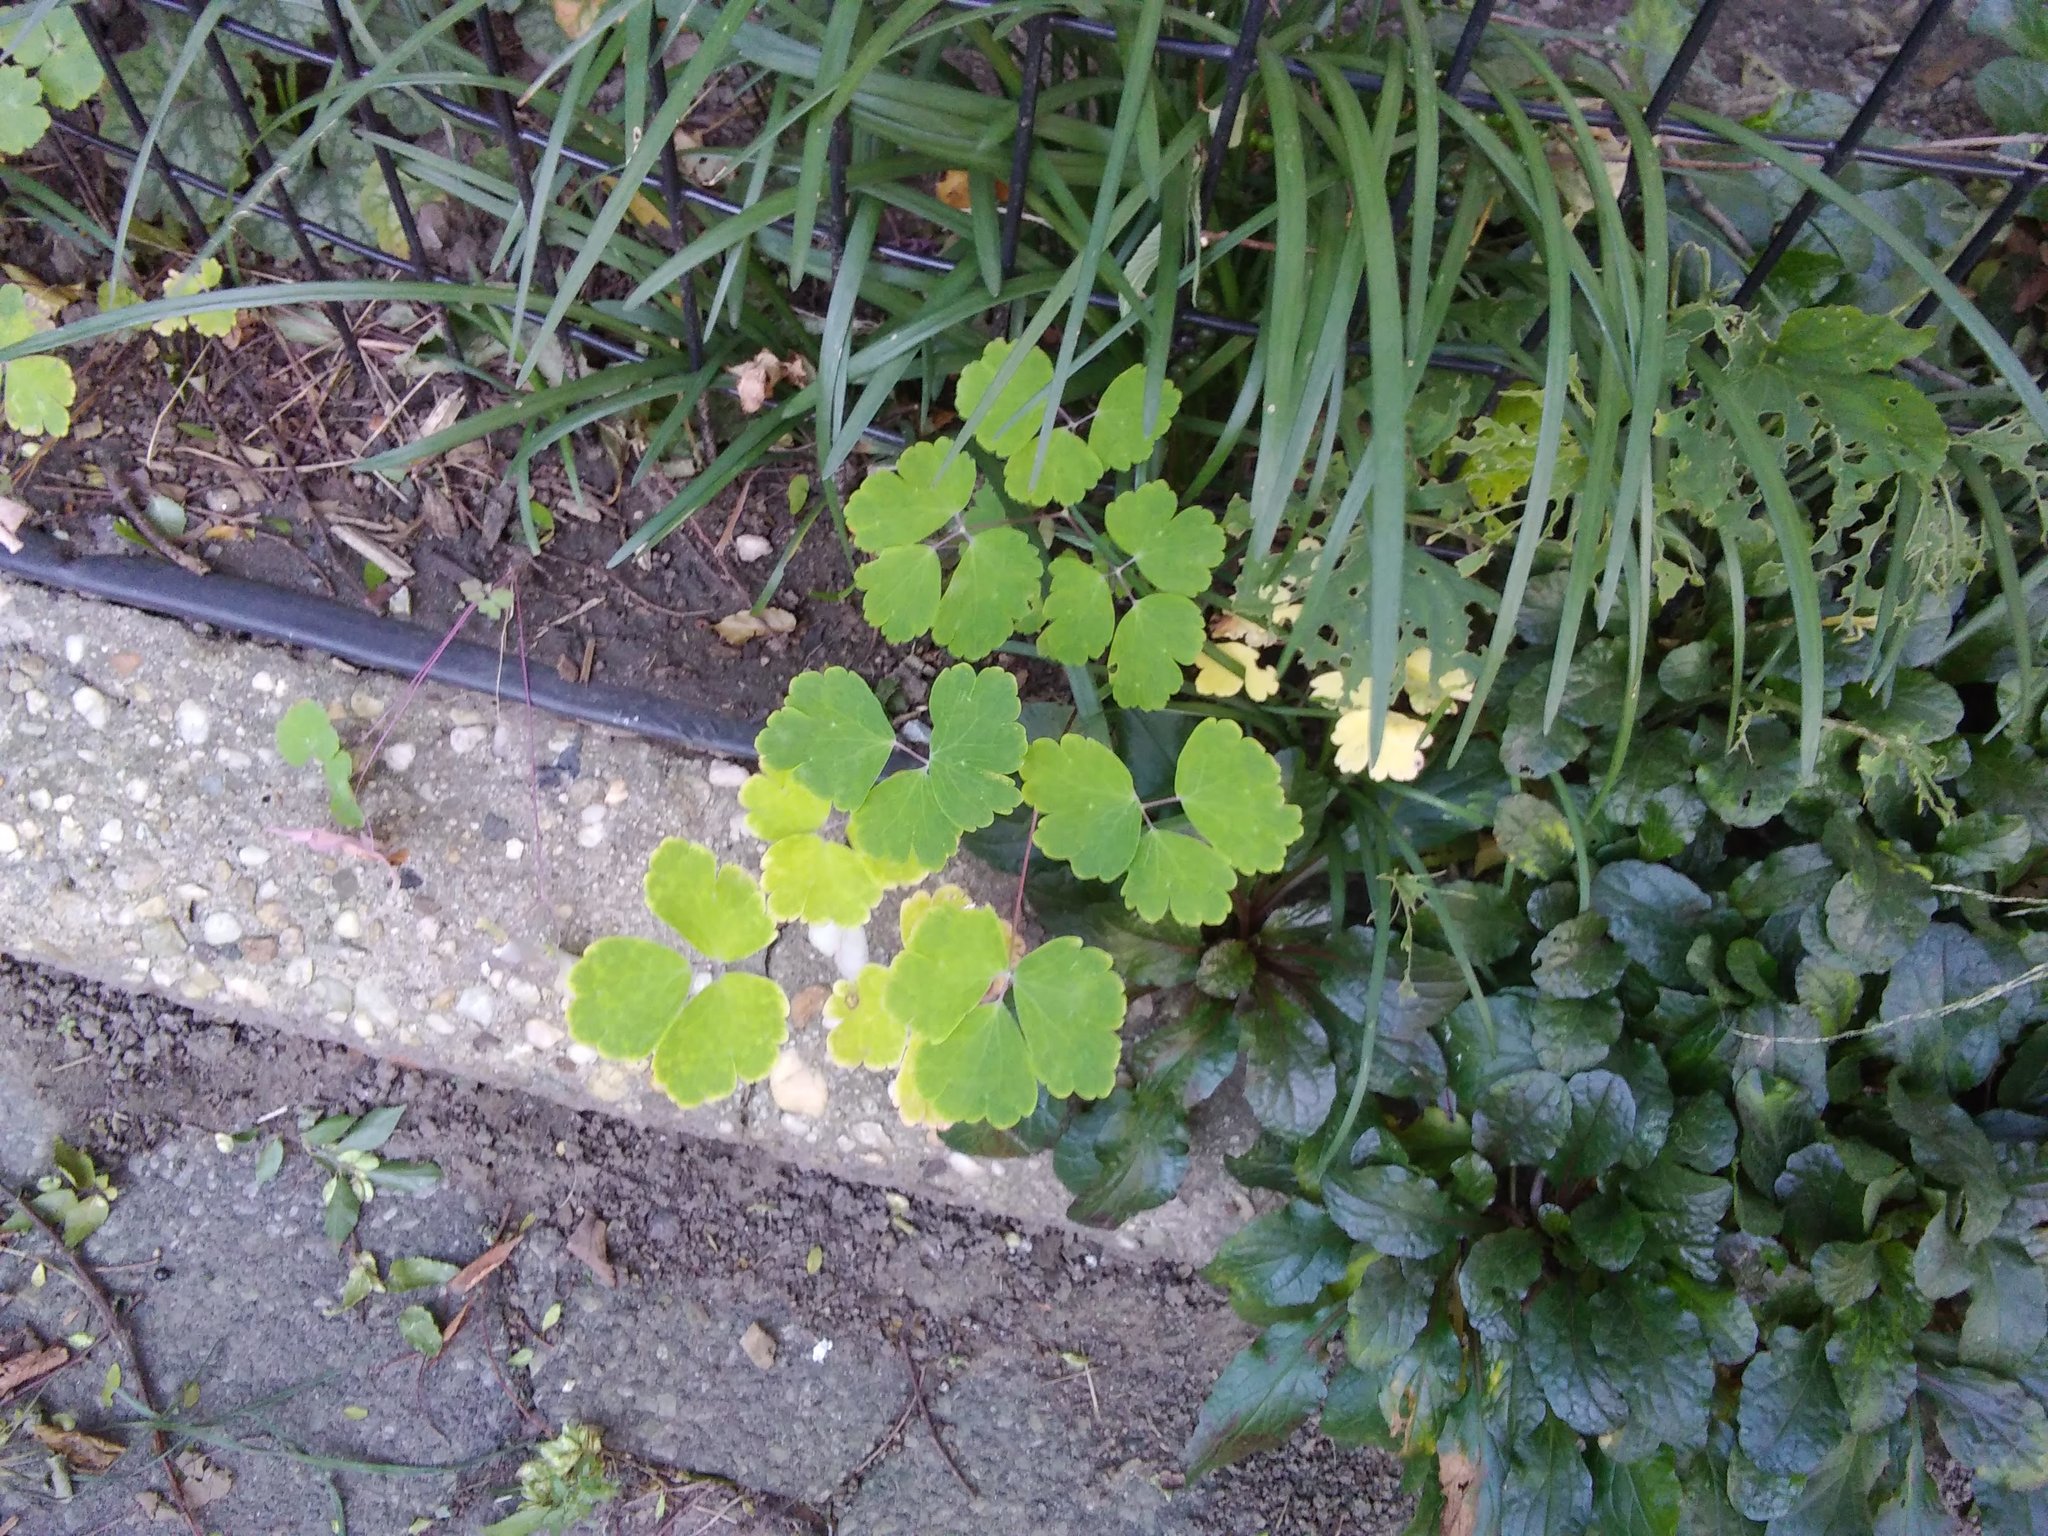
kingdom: Plantae
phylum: Tracheophyta
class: Magnoliopsida
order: Ranunculales
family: Ranunculaceae
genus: Aquilegia
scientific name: Aquilegia canadensis
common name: American columbine
